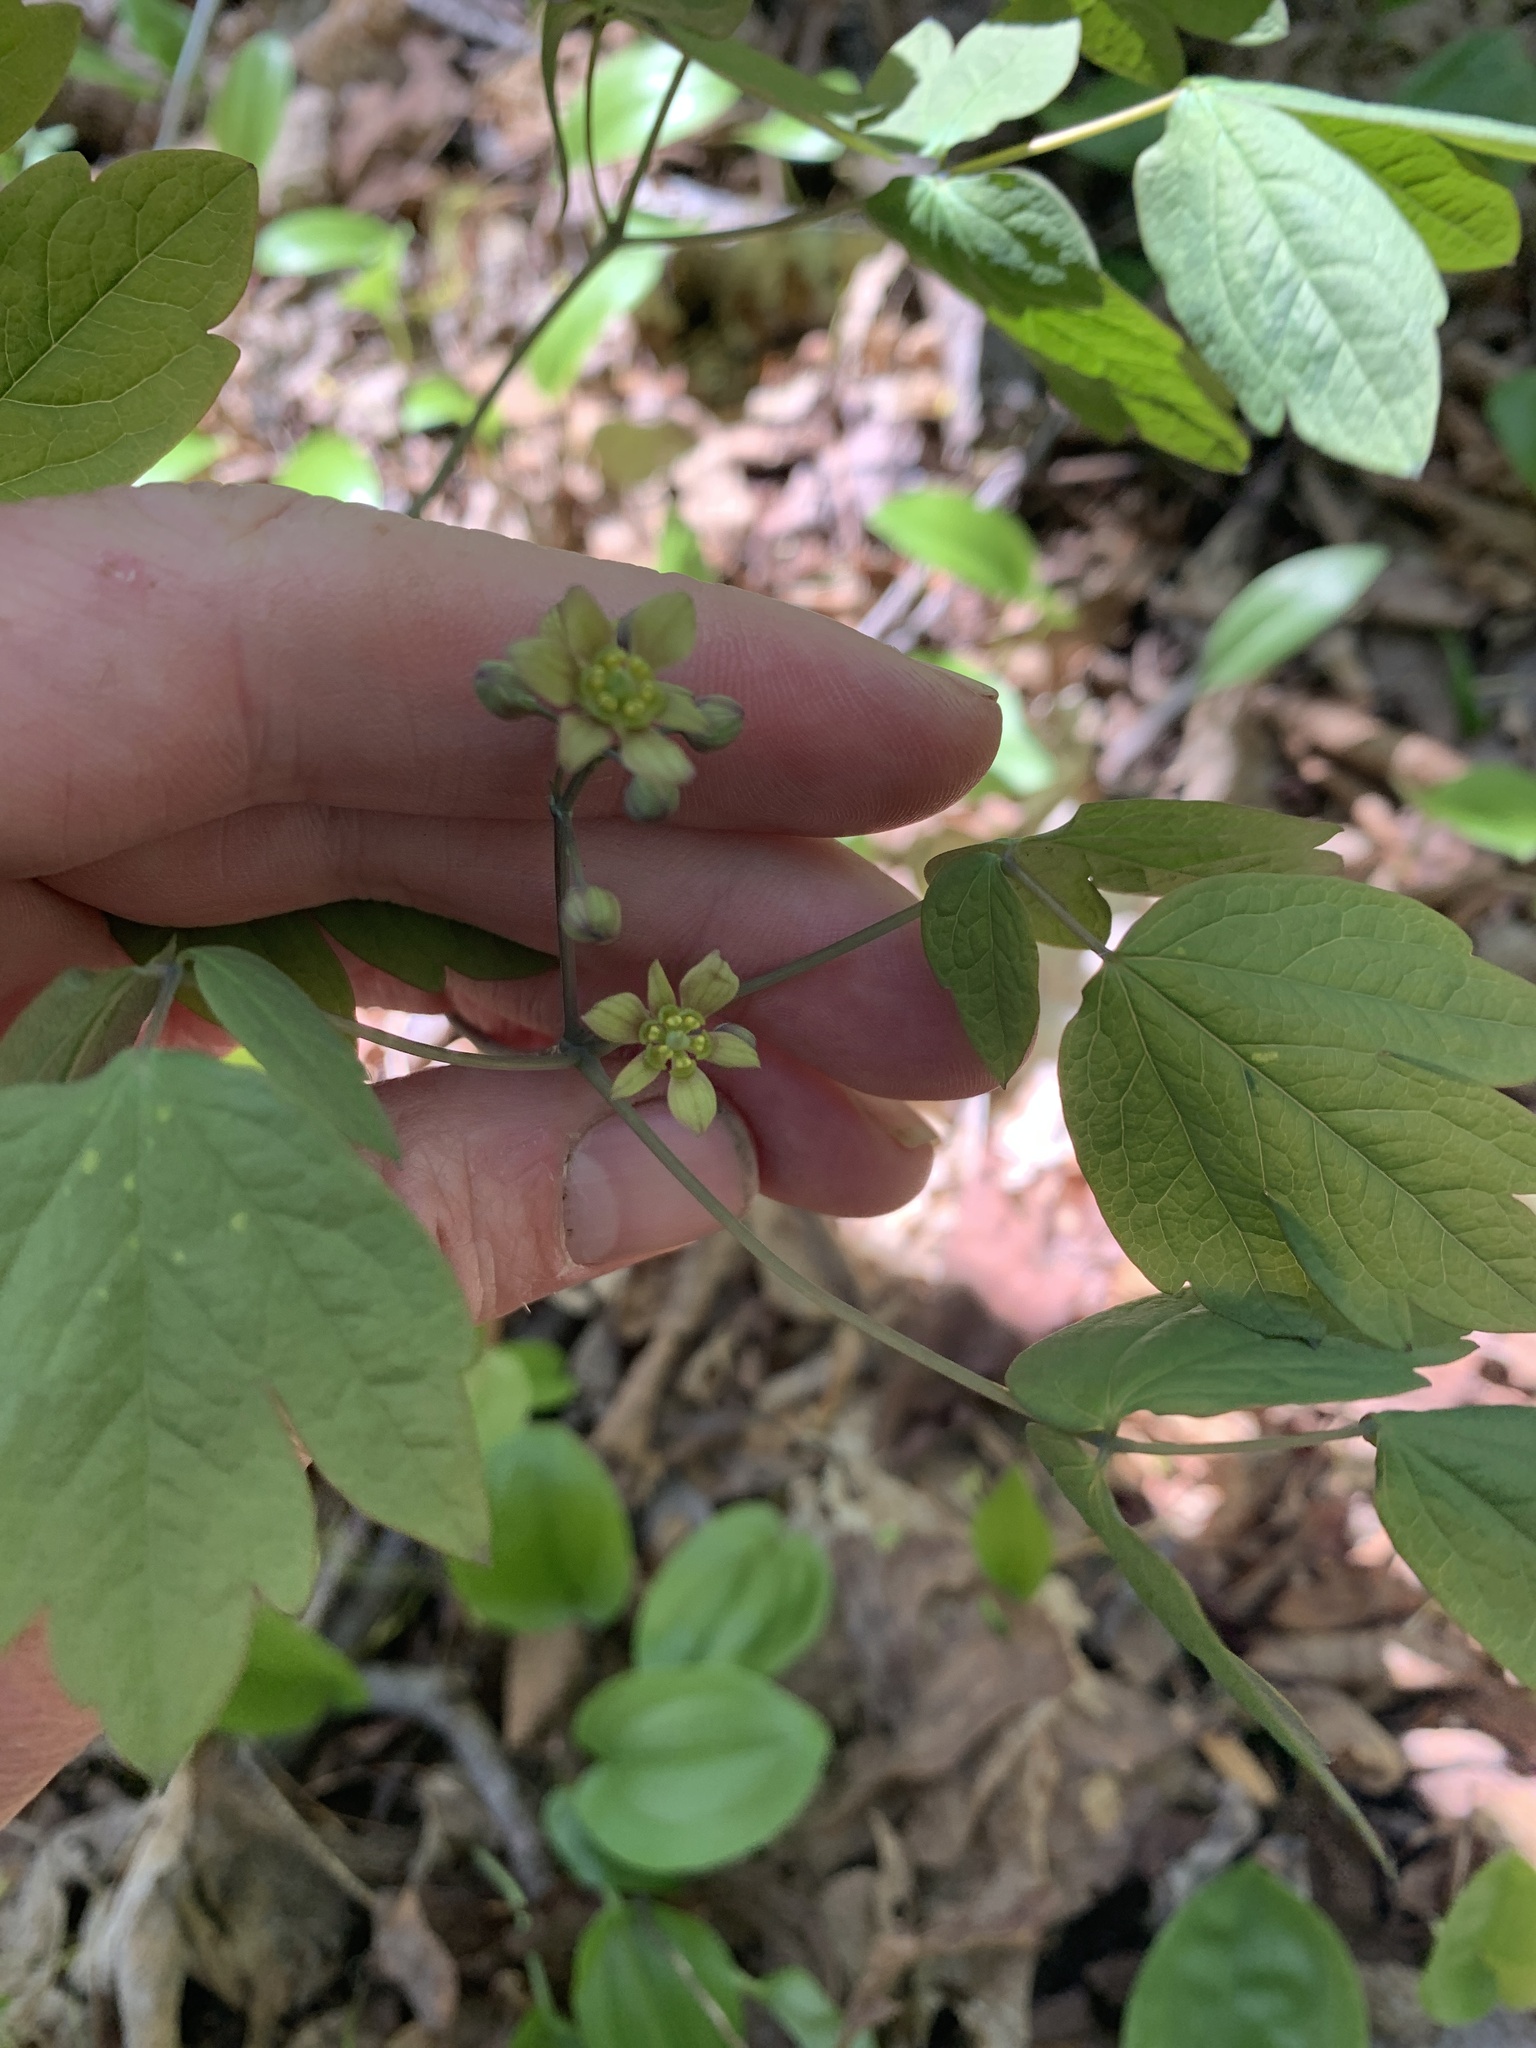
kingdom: Plantae
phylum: Tracheophyta
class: Magnoliopsida
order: Ranunculales
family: Berberidaceae
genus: Caulophyllum
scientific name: Caulophyllum thalictroides
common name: Blue cohosh
